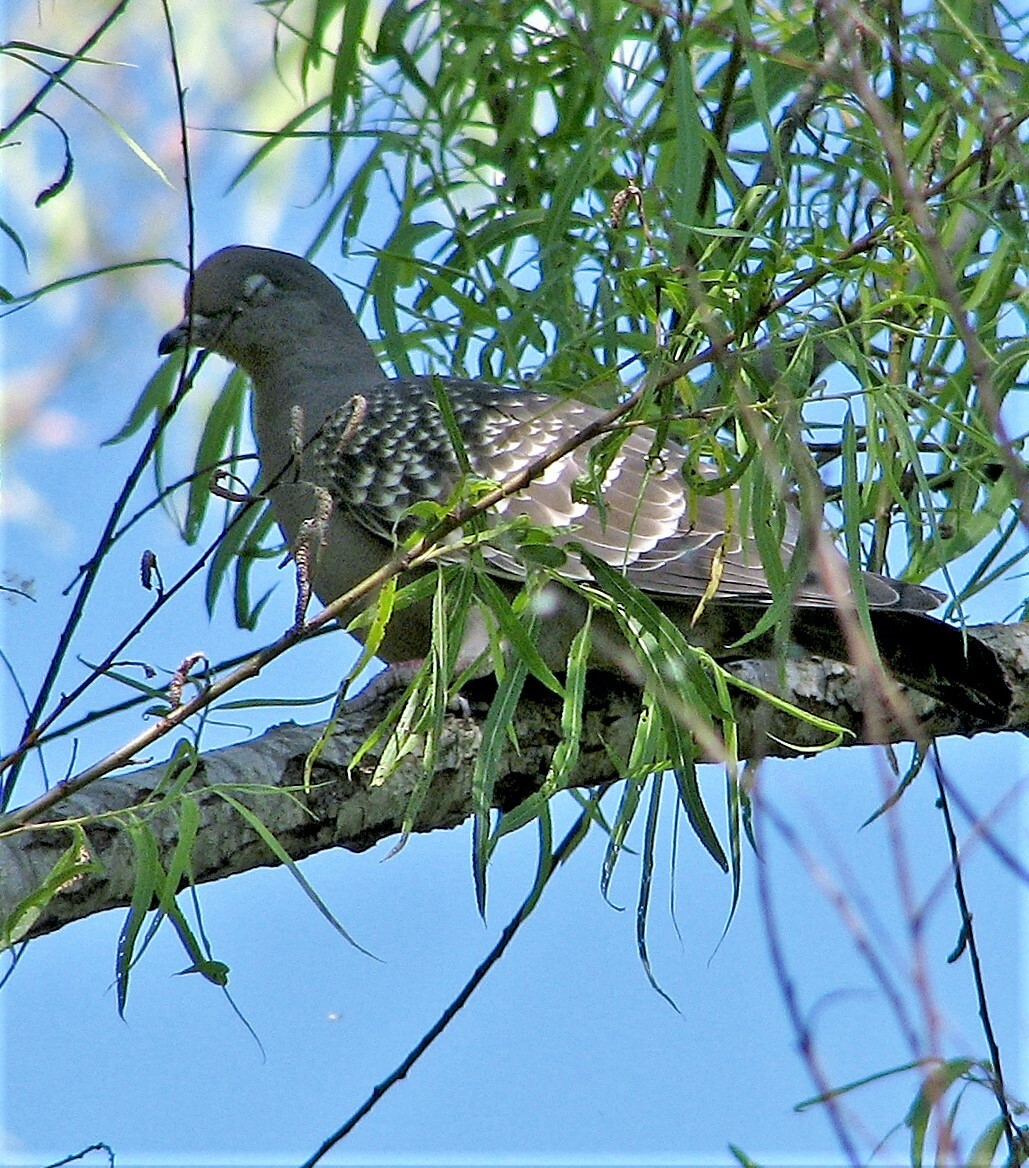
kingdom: Animalia
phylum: Chordata
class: Aves
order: Columbiformes
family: Columbidae
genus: Patagioenas
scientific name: Patagioenas maculosa
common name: Spot-winged pigeon
